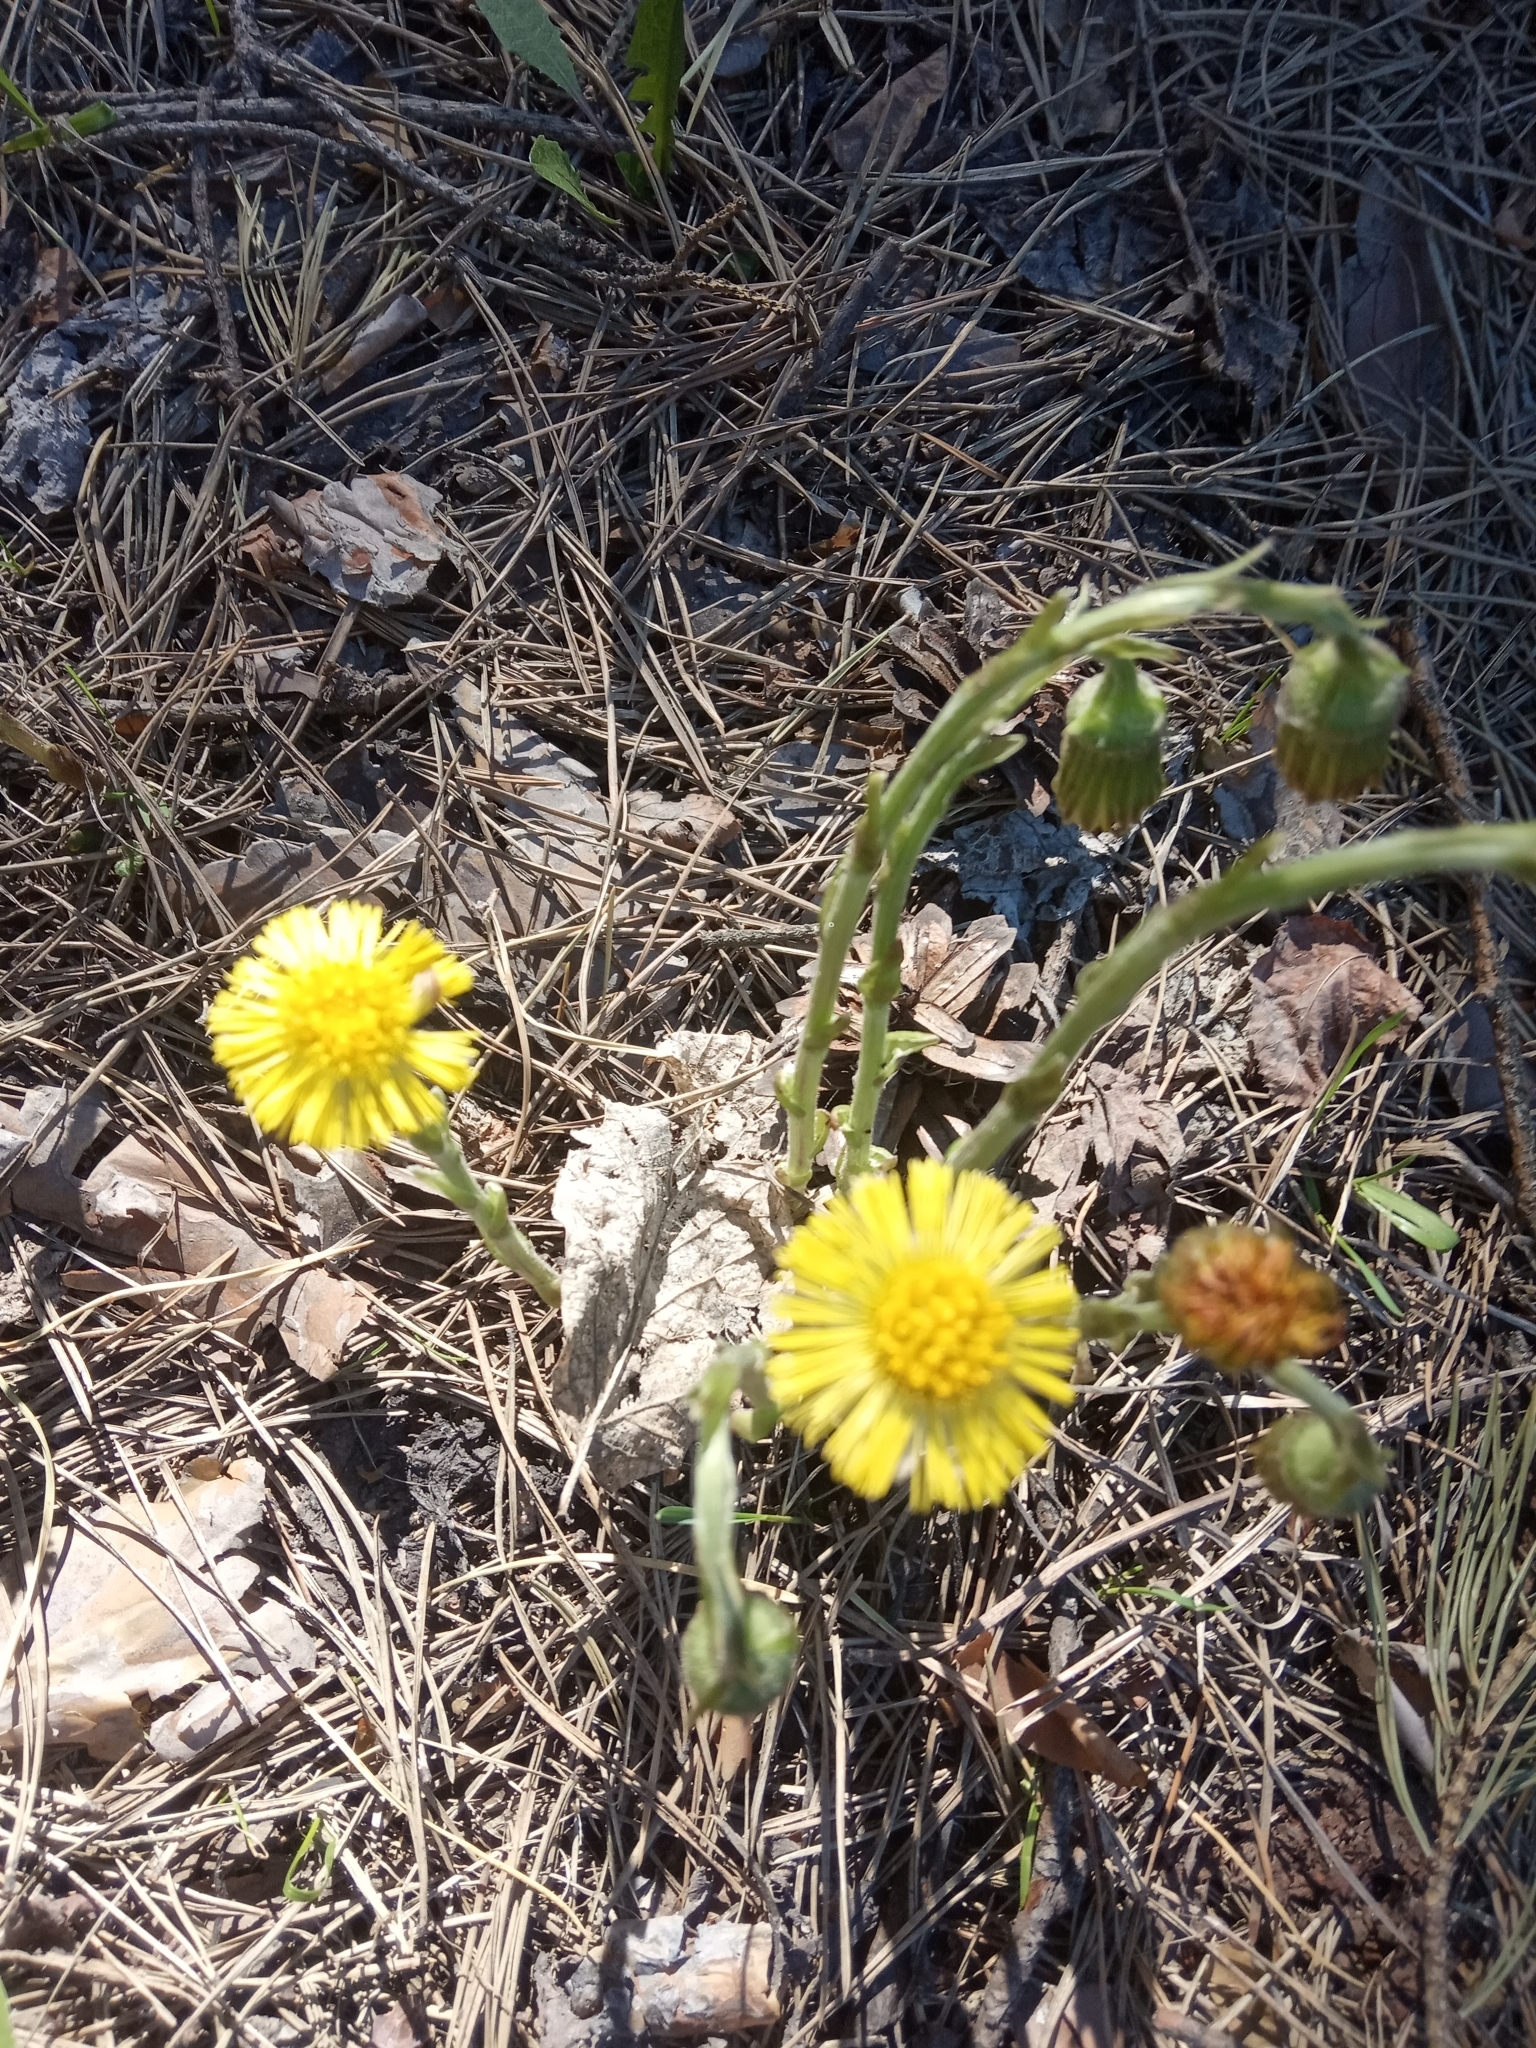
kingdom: Plantae
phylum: Tracheophyta
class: Magnoliopsida
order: Asterales
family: Asteraceae
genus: Tussilago
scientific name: Tussilago farfara
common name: Coltsfoot
